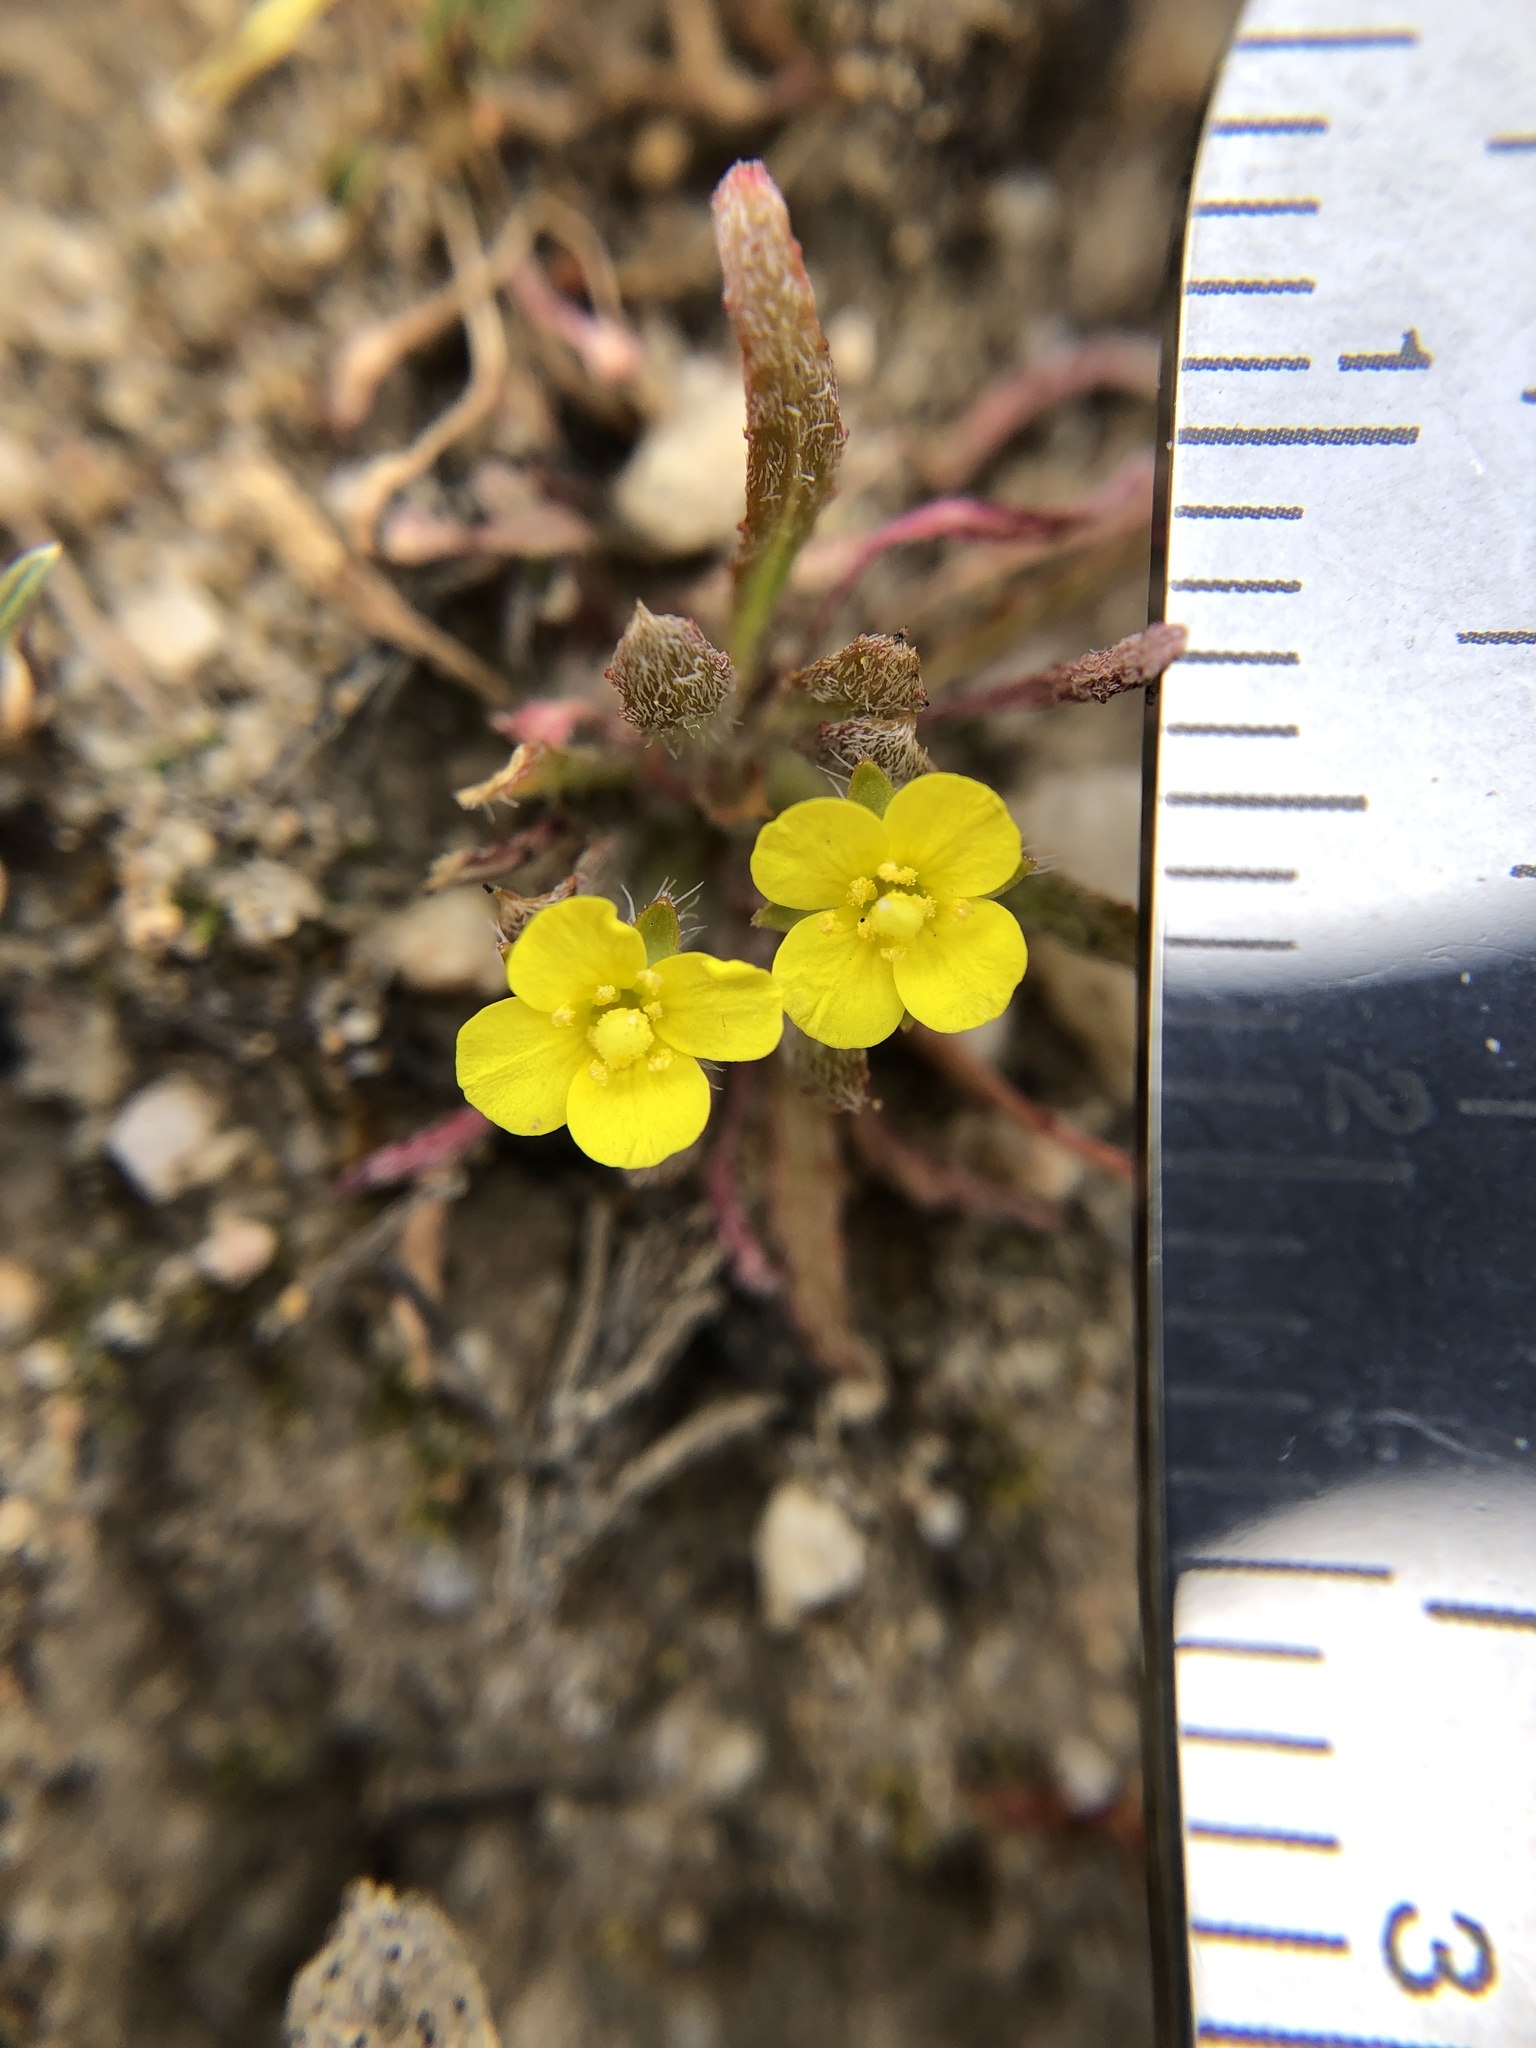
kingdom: Plantae
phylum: Tracheophyta
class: Magnoliopsida
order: Myrtales
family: Onagraceae
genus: Camissoniopsis
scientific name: Camissoniopsis micrantha
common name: Miniature suncup
